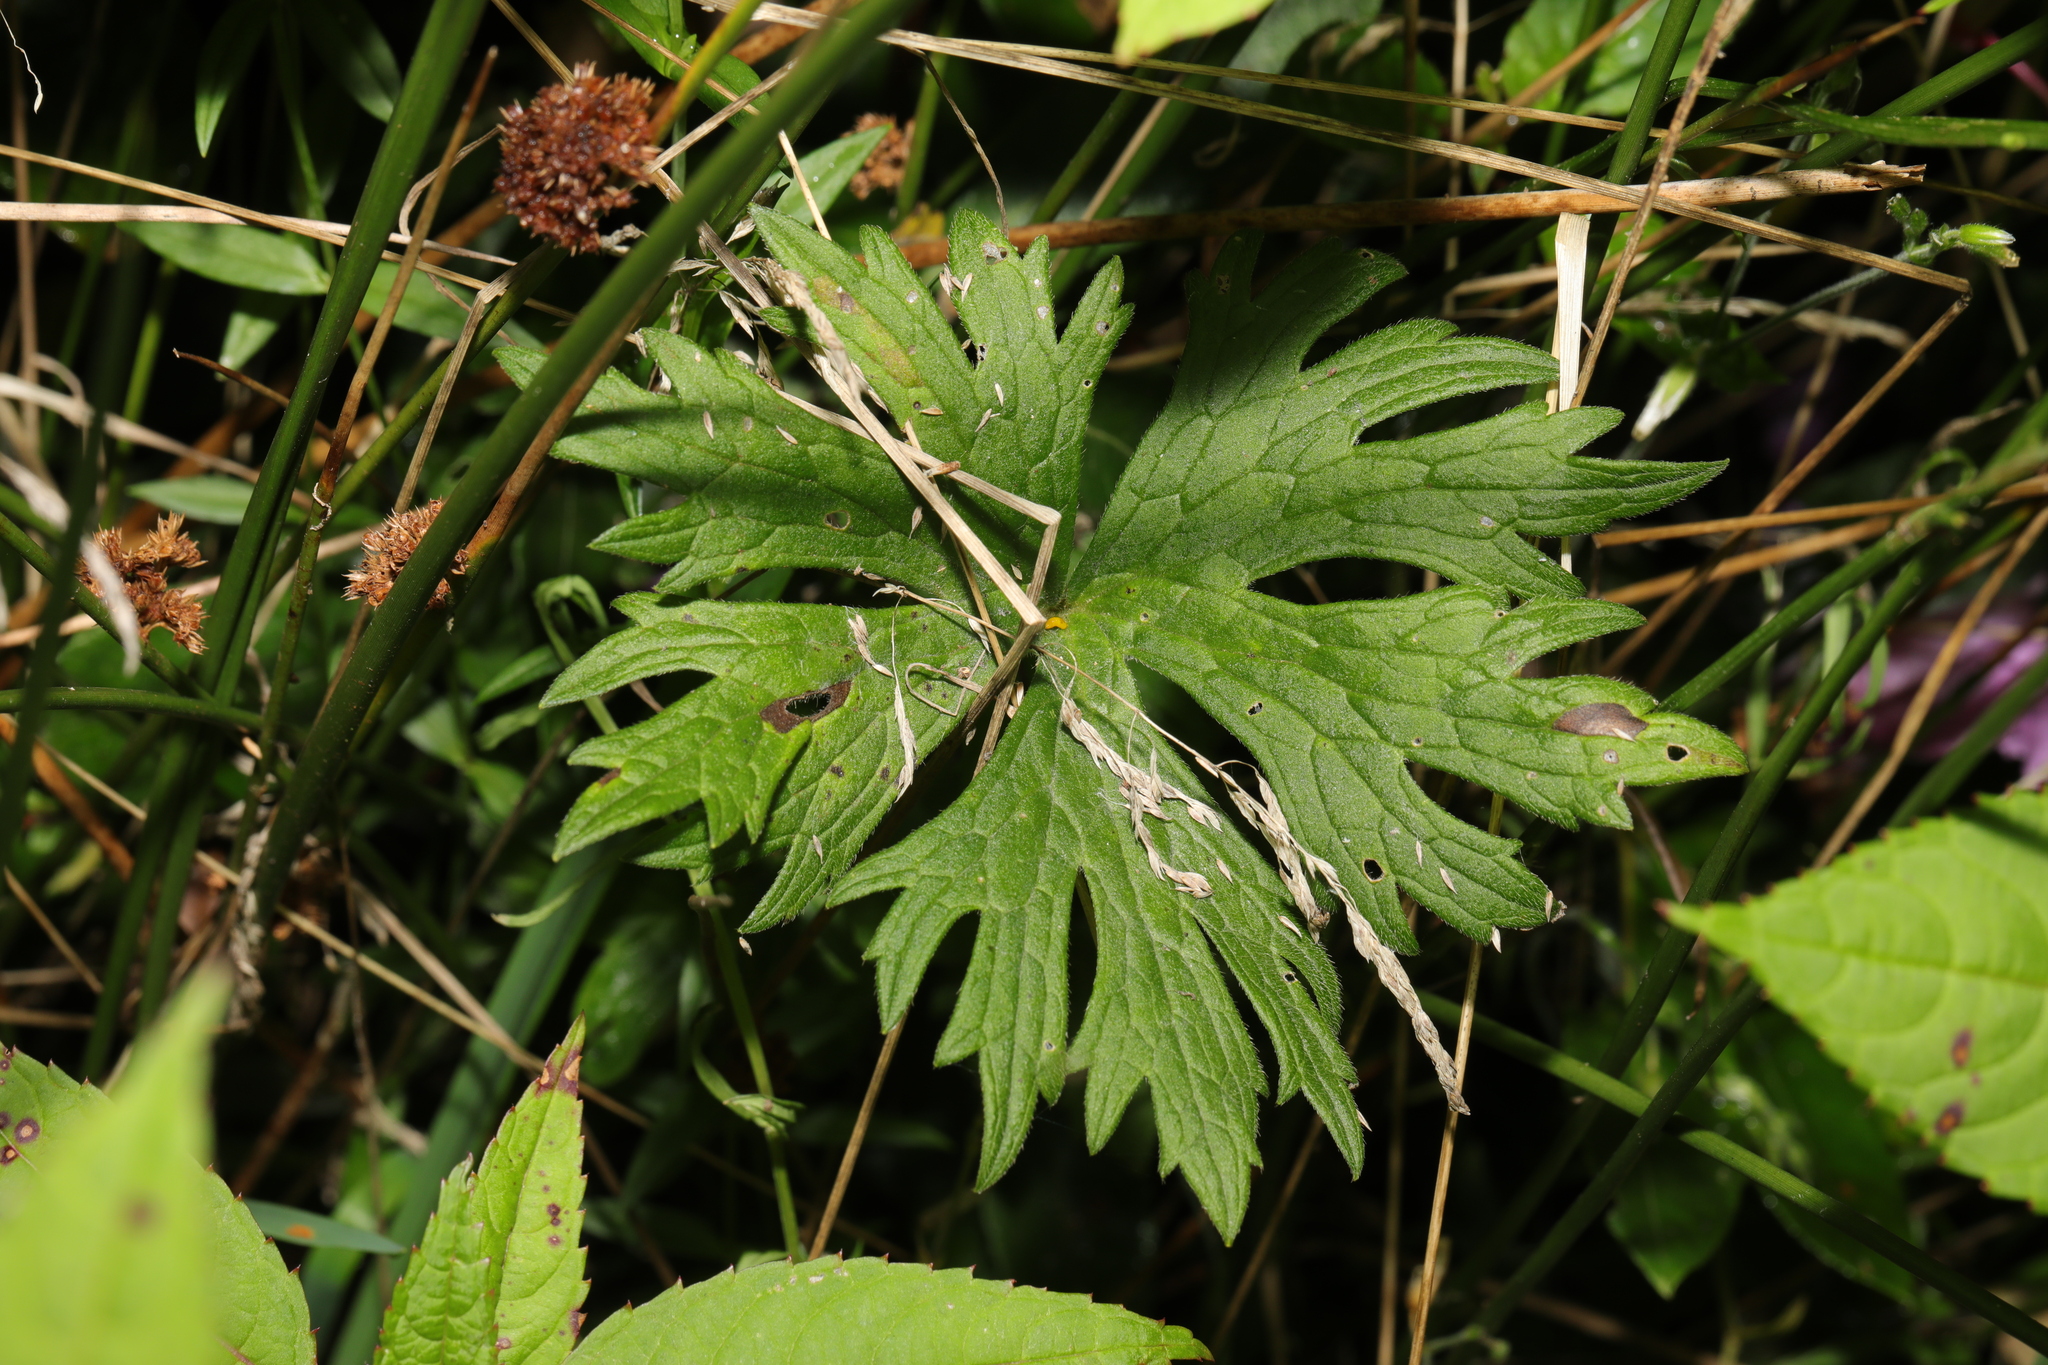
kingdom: Plantae
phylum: Tracheophyta
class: Magnoliopsida
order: Ranunculales
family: Ranunculaceae
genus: Ranunculus
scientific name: Ranunculus acris
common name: Meadow buttercup
